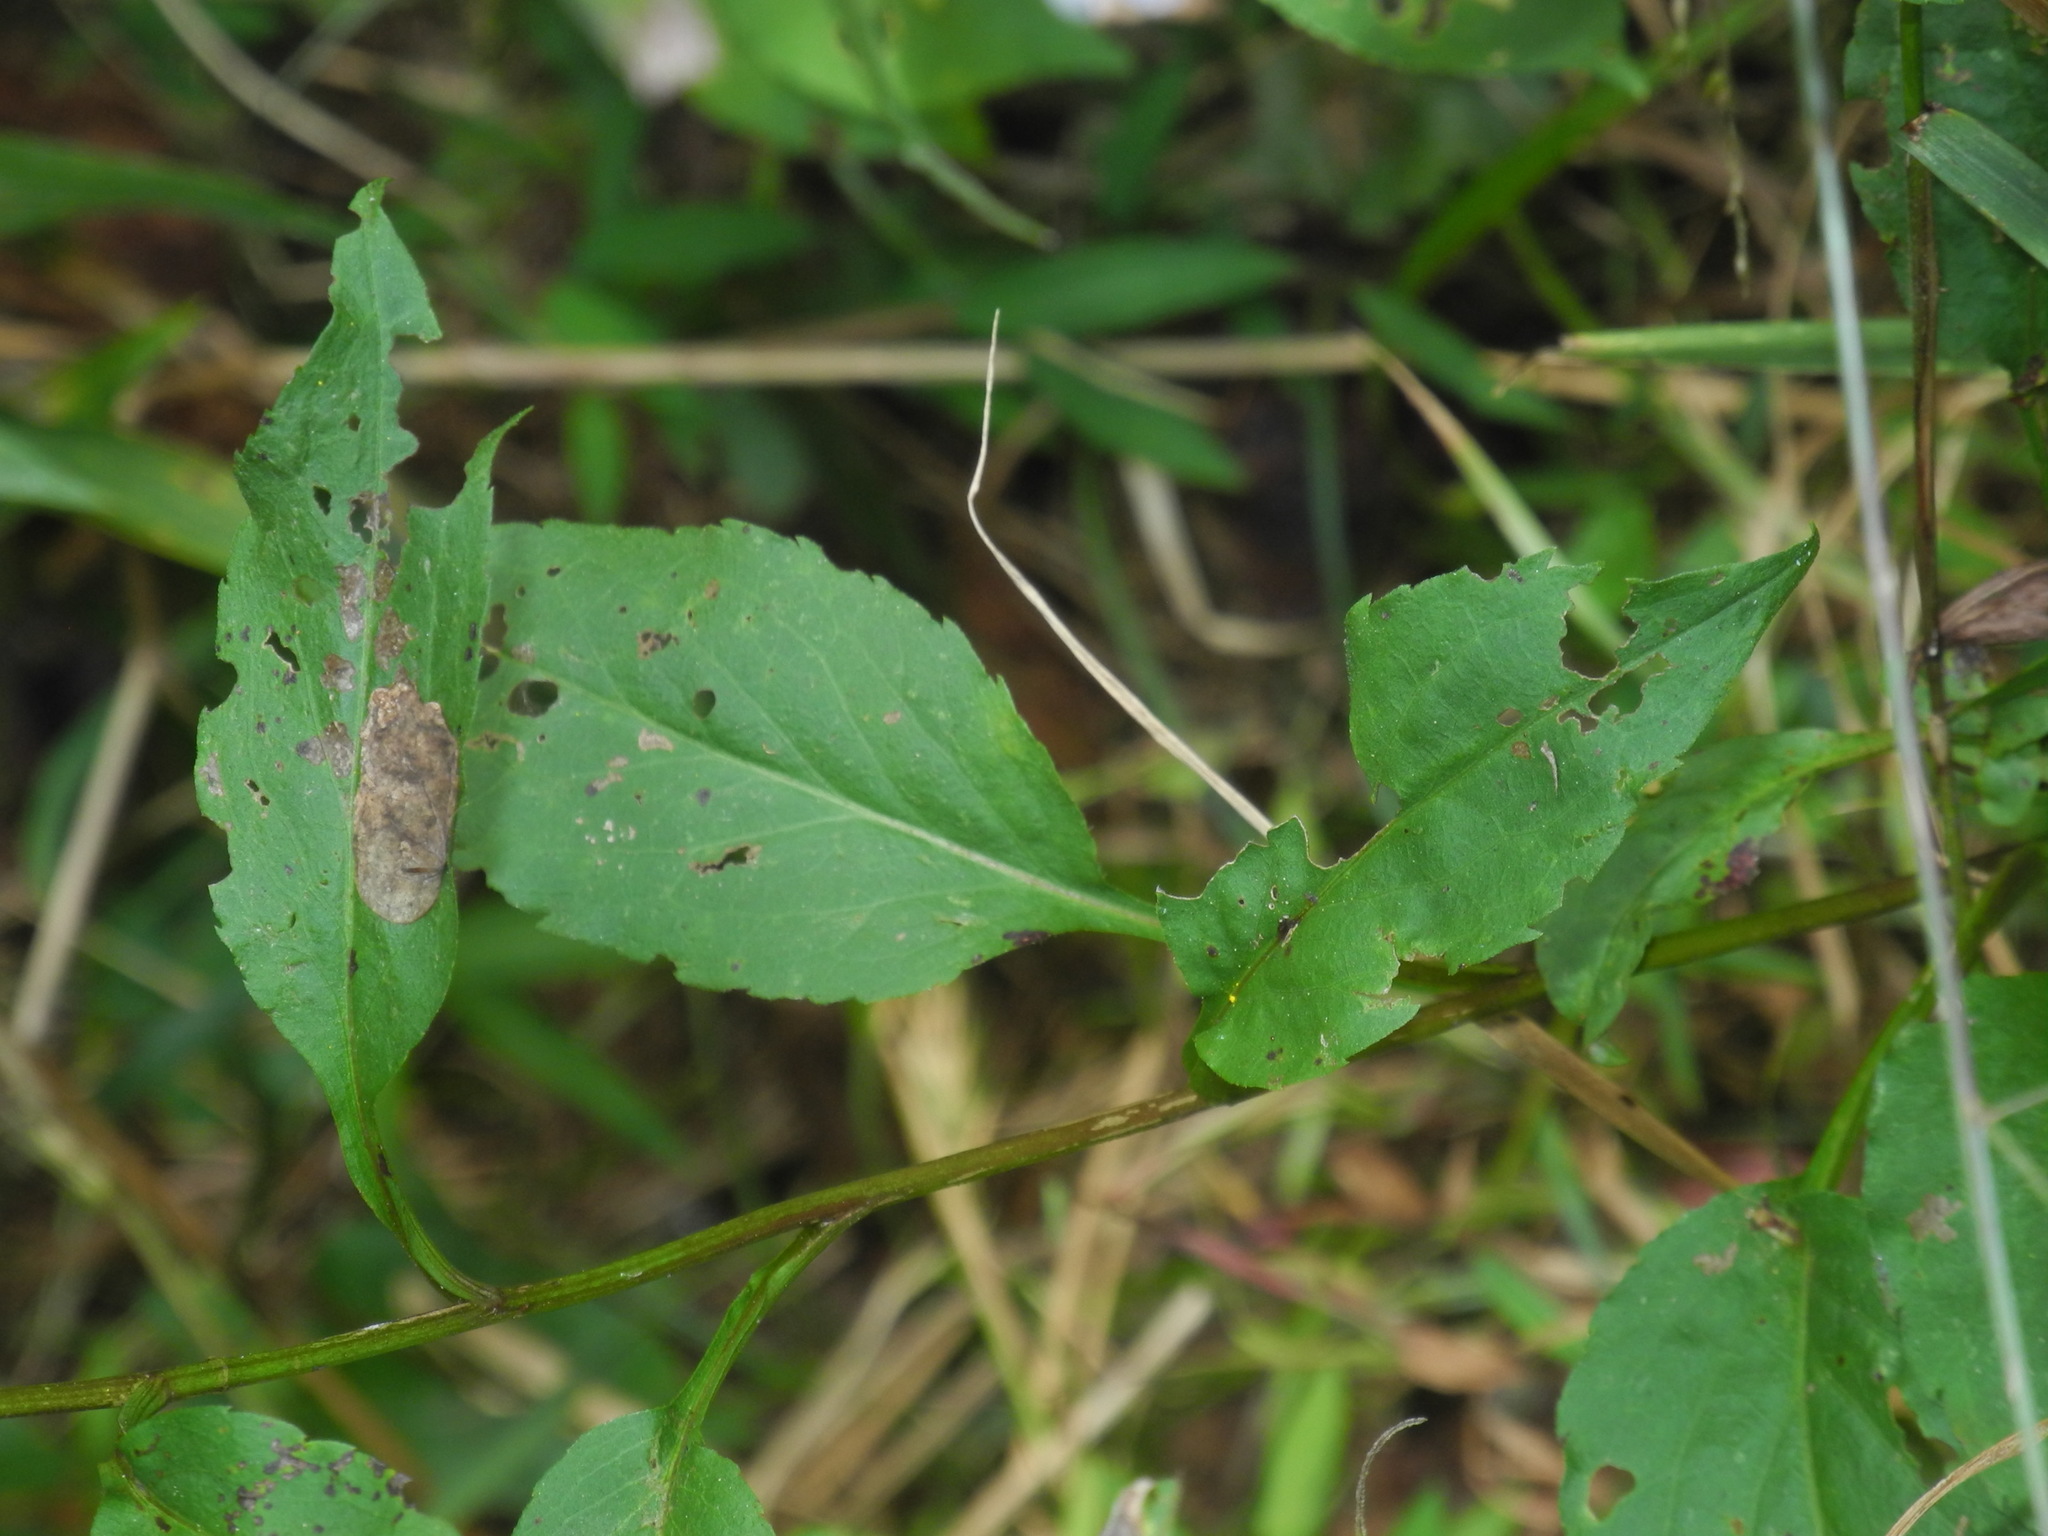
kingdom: Plantae
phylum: Tracheophyta
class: Magnoliopsida
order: Asterales
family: Asteraceae
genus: Symphyotrichum
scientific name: Symphyotrichum cordifolium
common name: Beeweed
